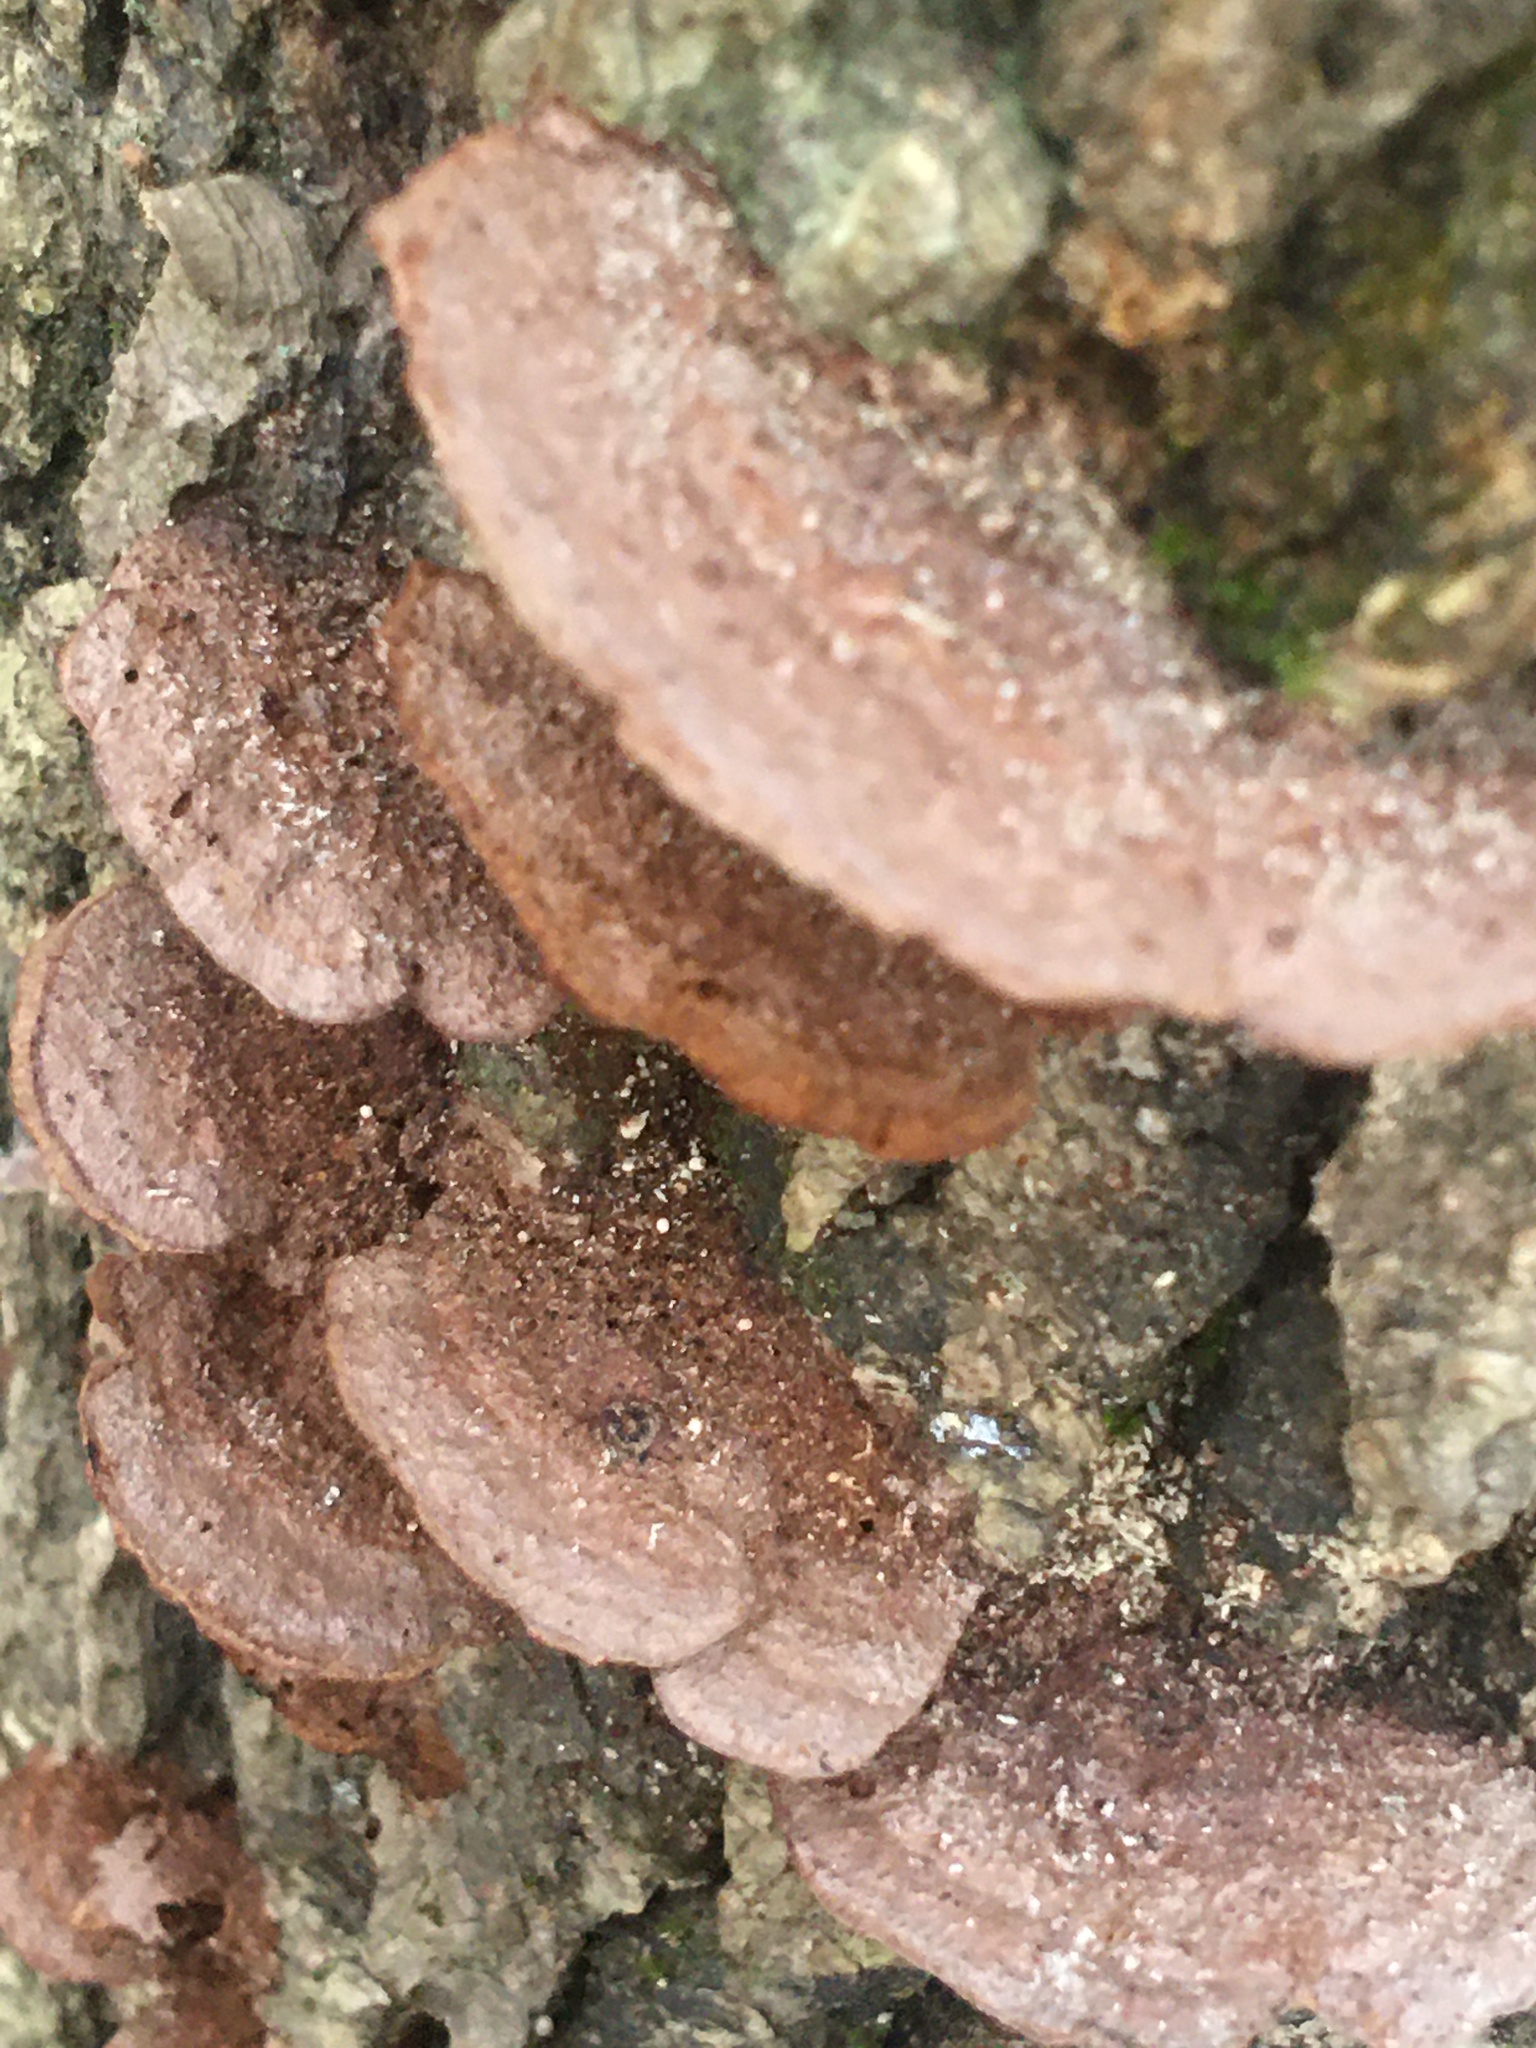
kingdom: Fungi
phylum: Basidiomycota
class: Agaricomycetes
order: Hymenochaetales
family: Hymenochaetaceae
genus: Phellinus
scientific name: Phellinus gilvus
